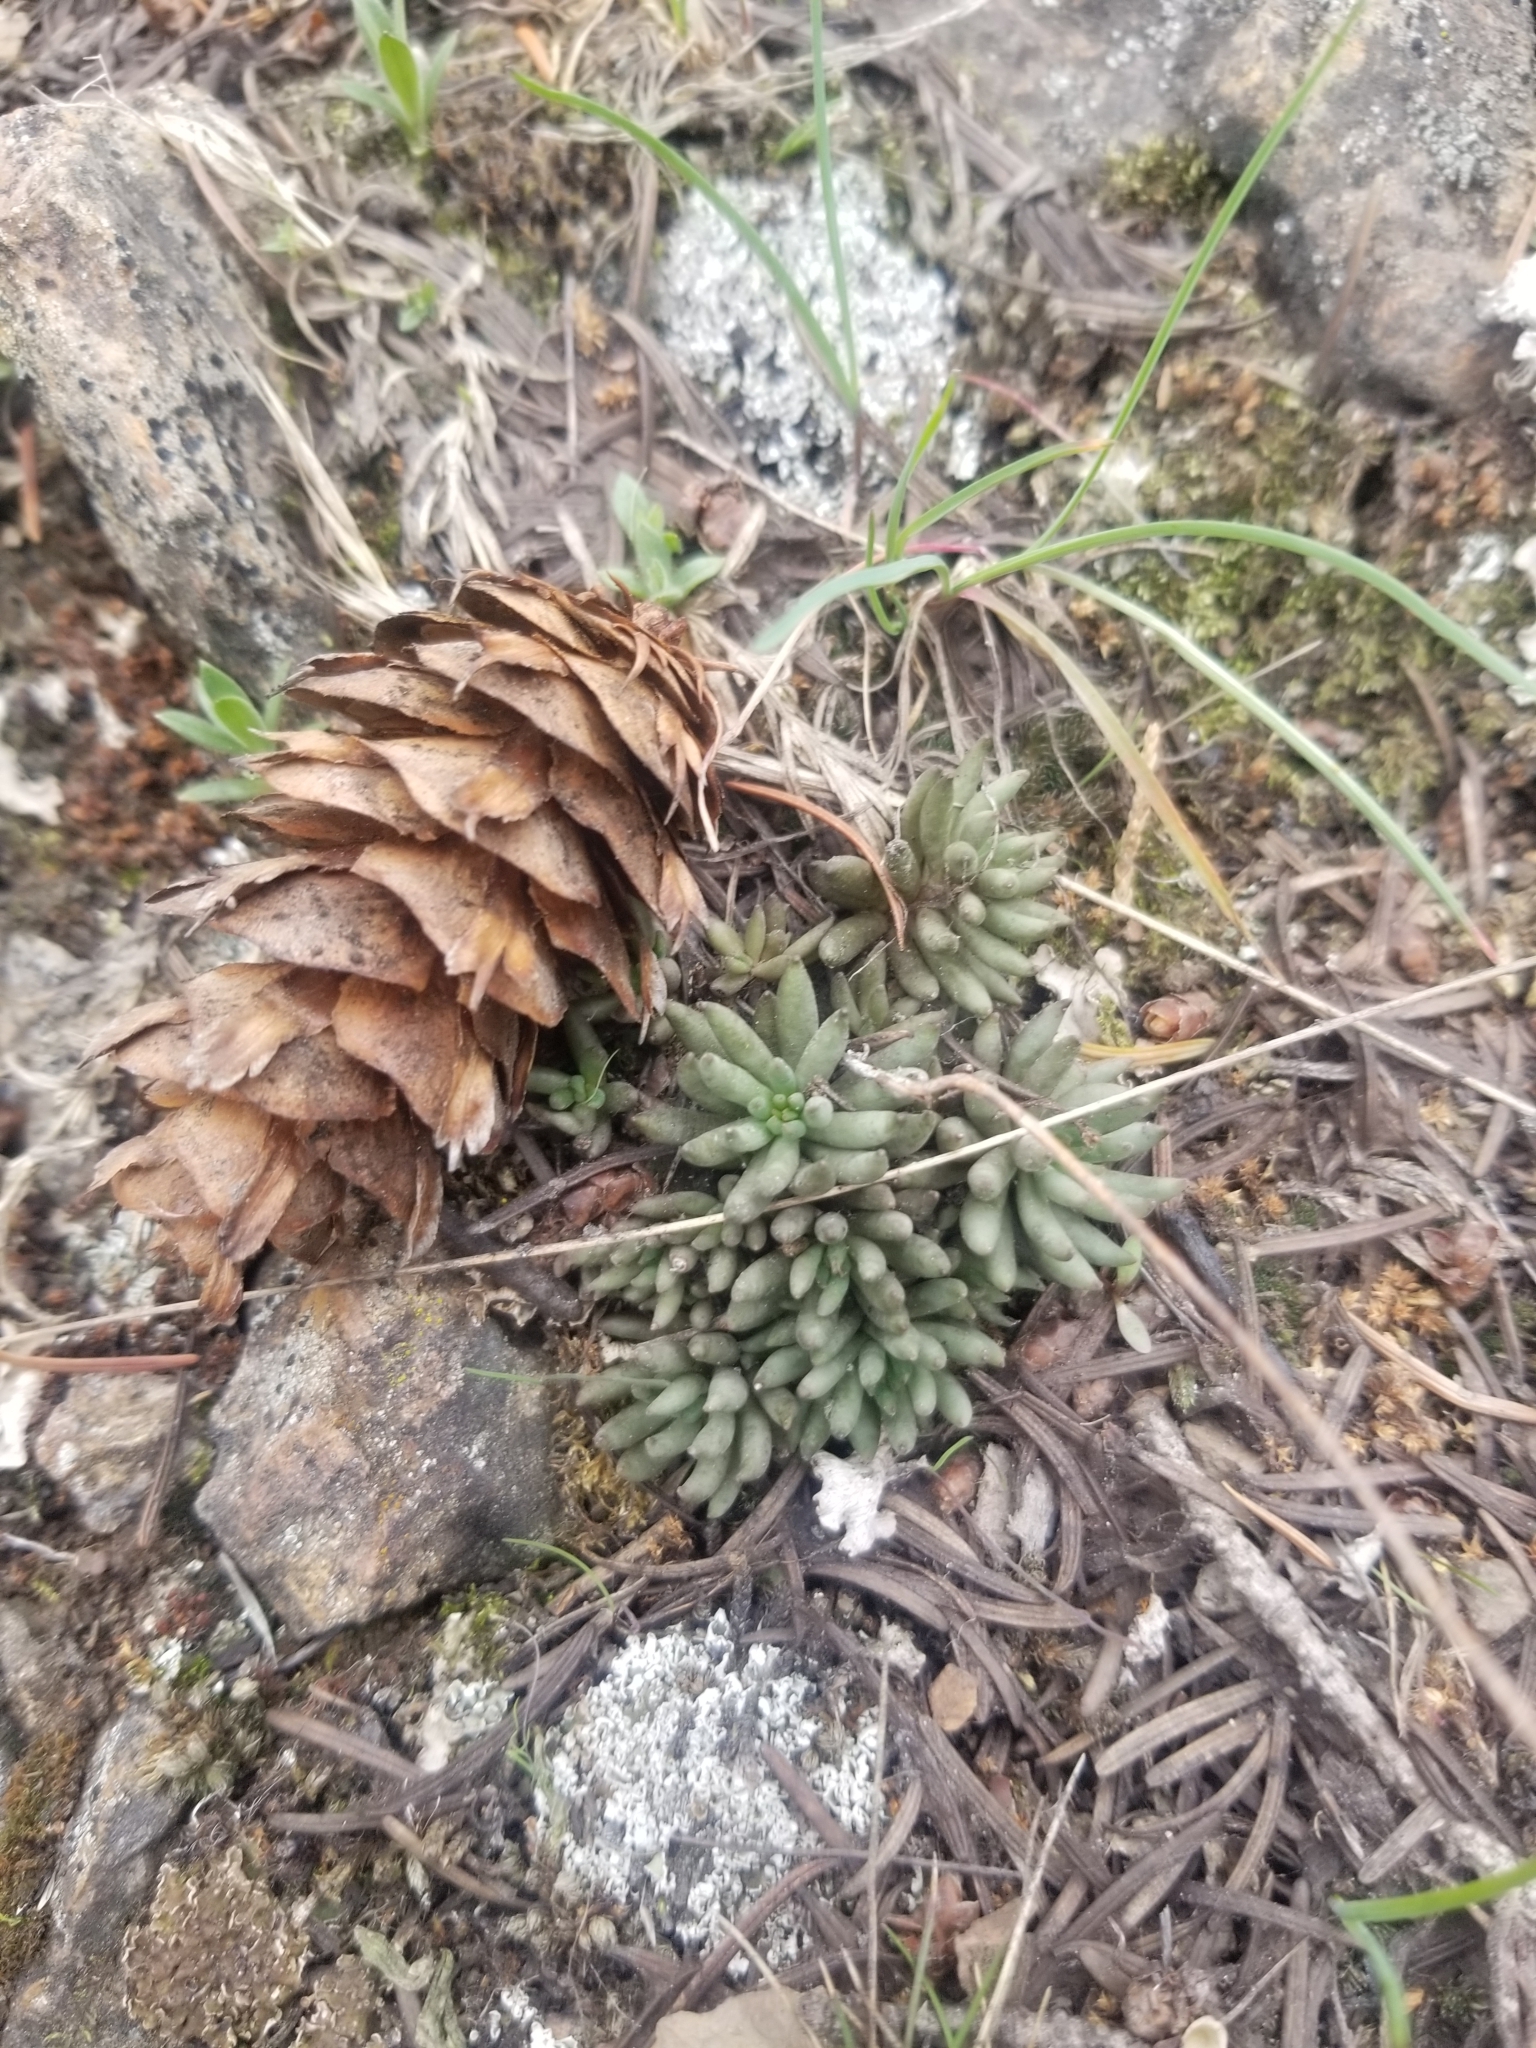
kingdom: Plantae
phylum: Tracheophyta
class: Magnoliopsida
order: Saxifragales
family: Crassulaceae
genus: Sedum
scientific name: Sedum lanceolatum
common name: Common stonecrop
